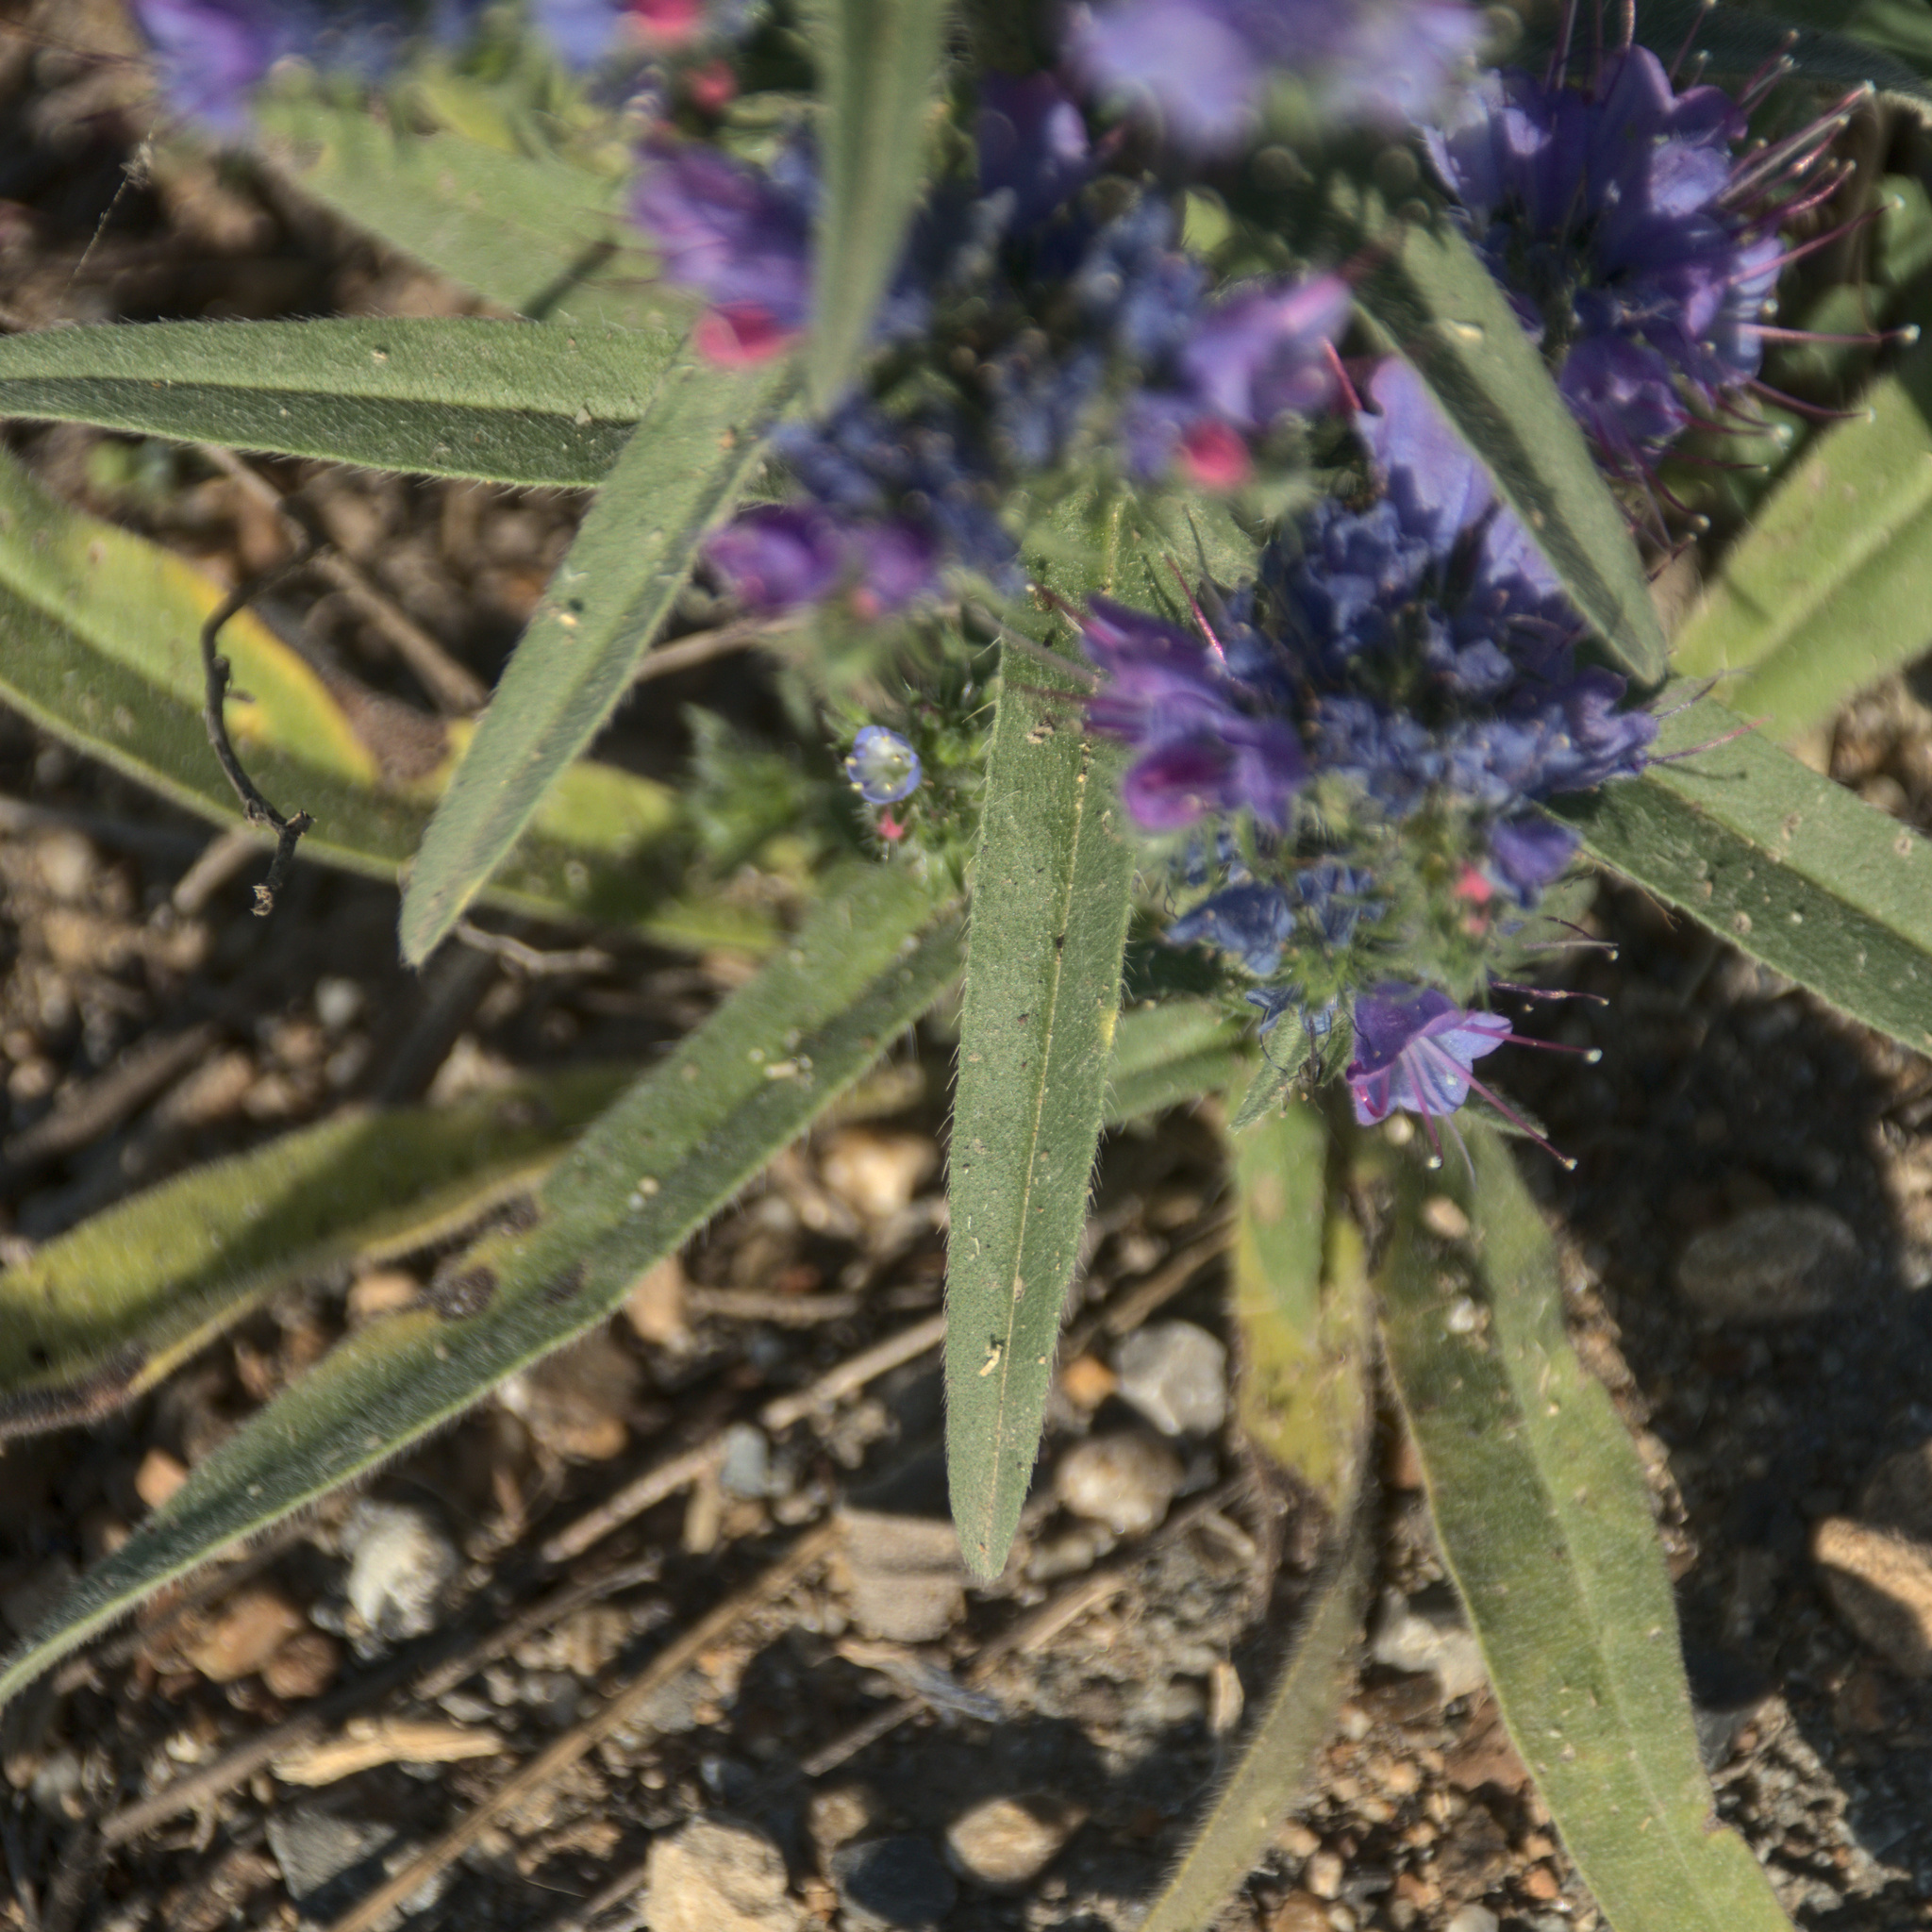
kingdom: Plantae
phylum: Tracheophyta
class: Magnoliopsida
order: Boraginales
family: Boraginaceae
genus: Echium
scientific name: Echium vulgare
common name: Common viper's bugloss
